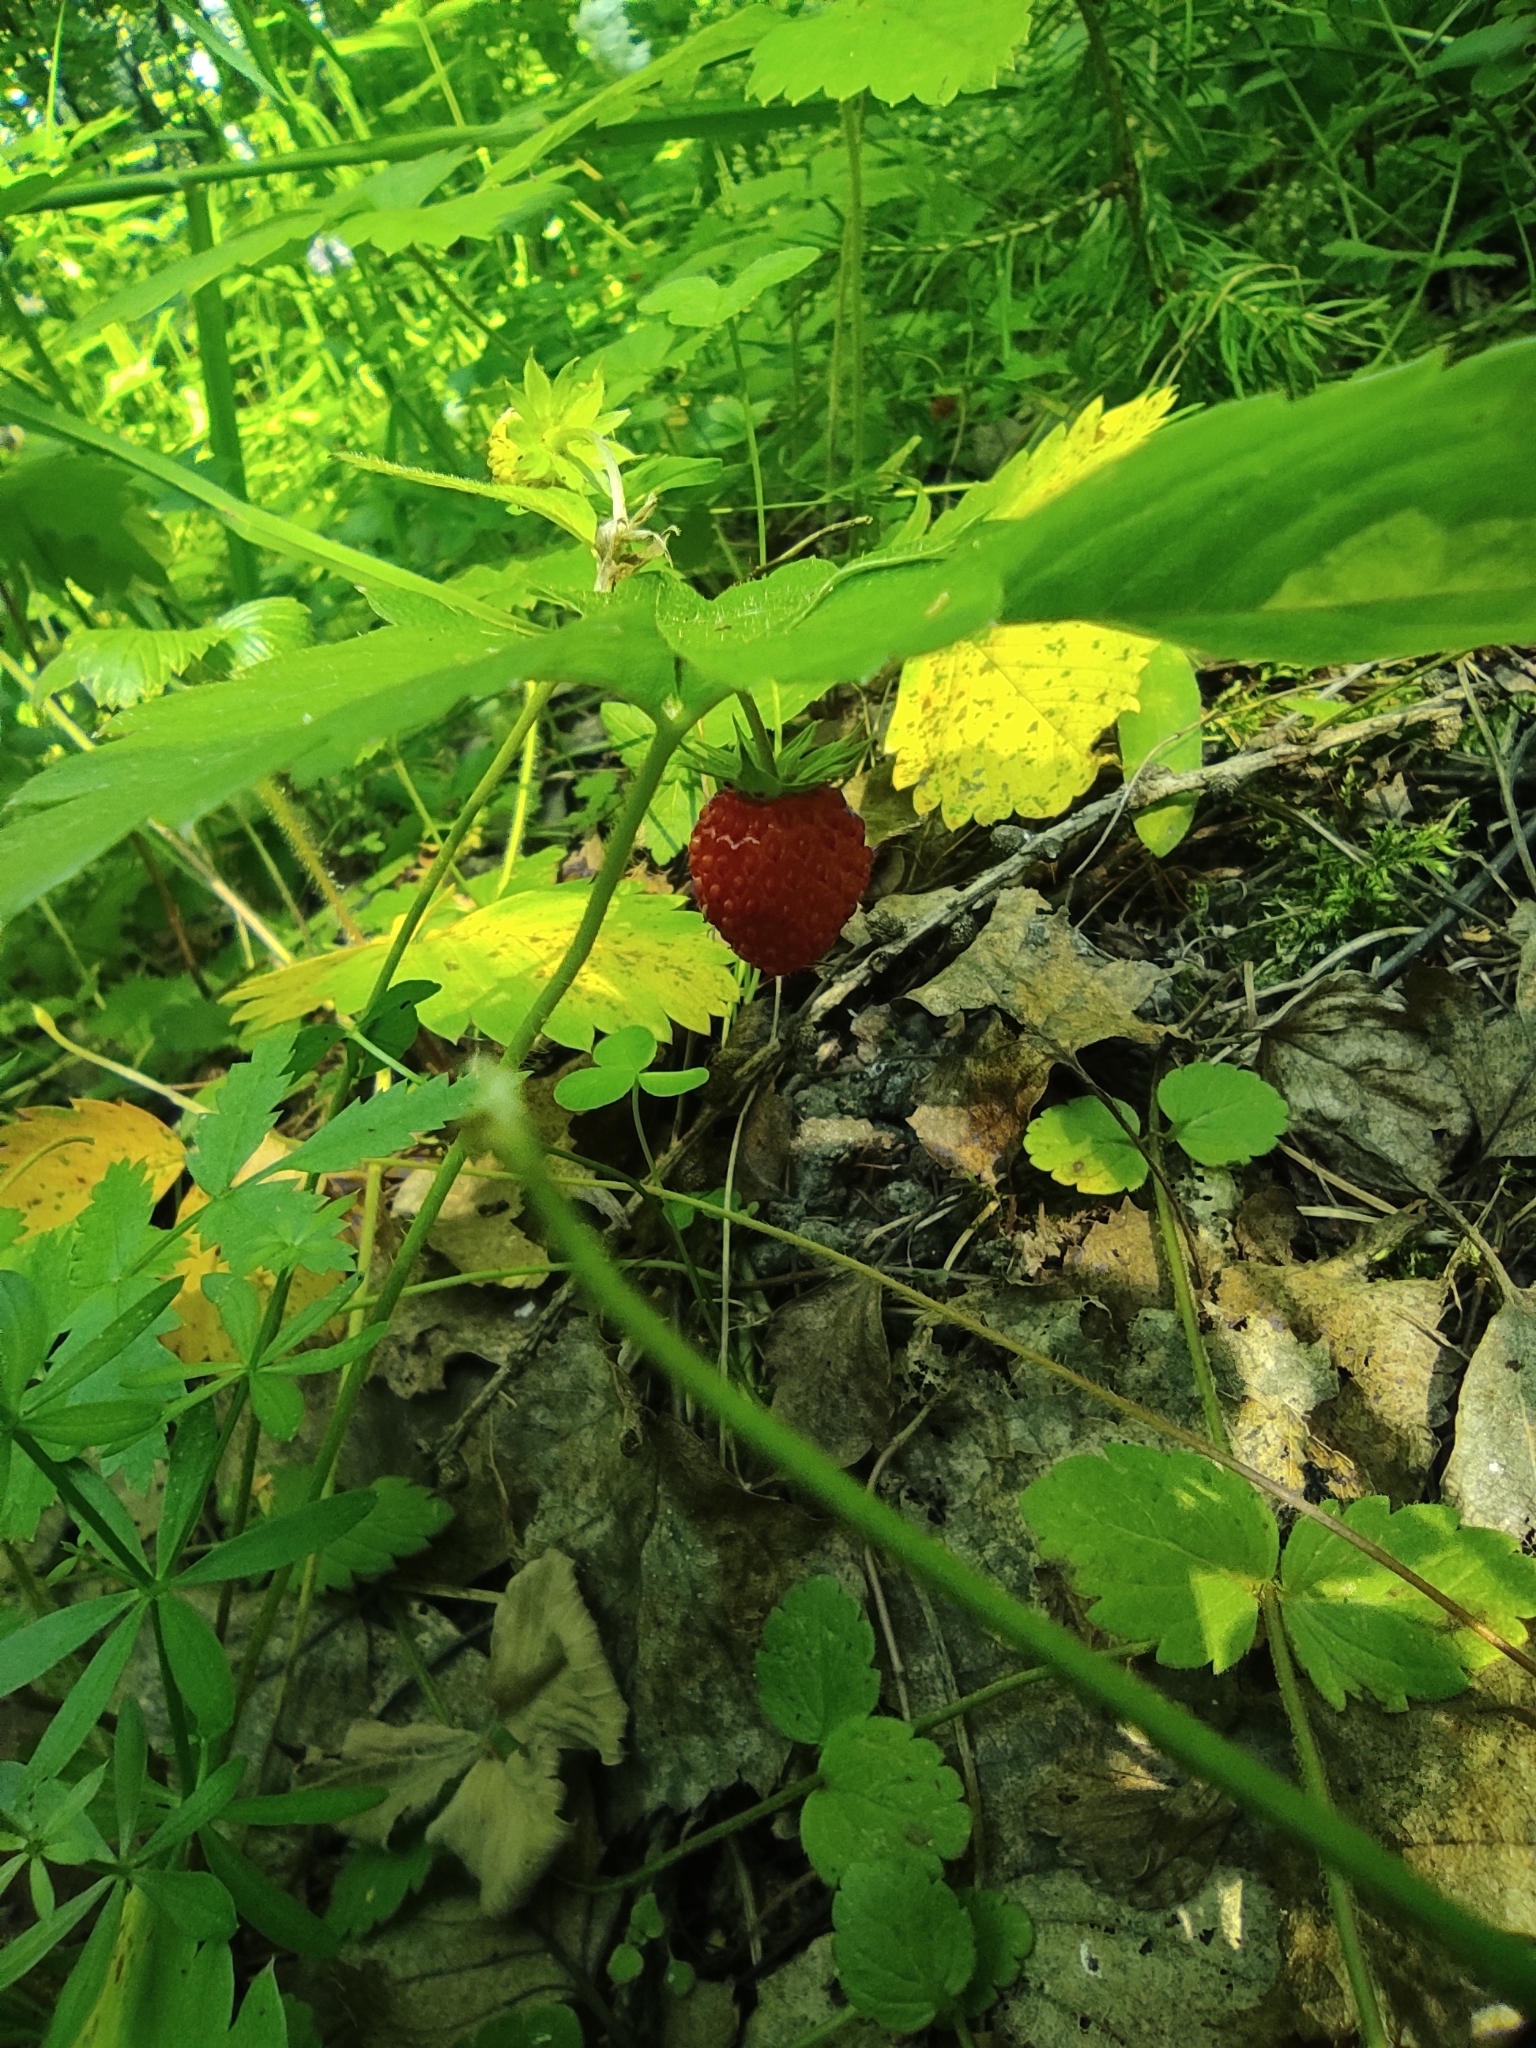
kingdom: Plantae
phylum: Tracheophyta
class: Magnoliopsida
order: Rosales
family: Rosaceae
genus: Fragaria
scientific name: Fragaria vesca
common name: Wild strawberry
